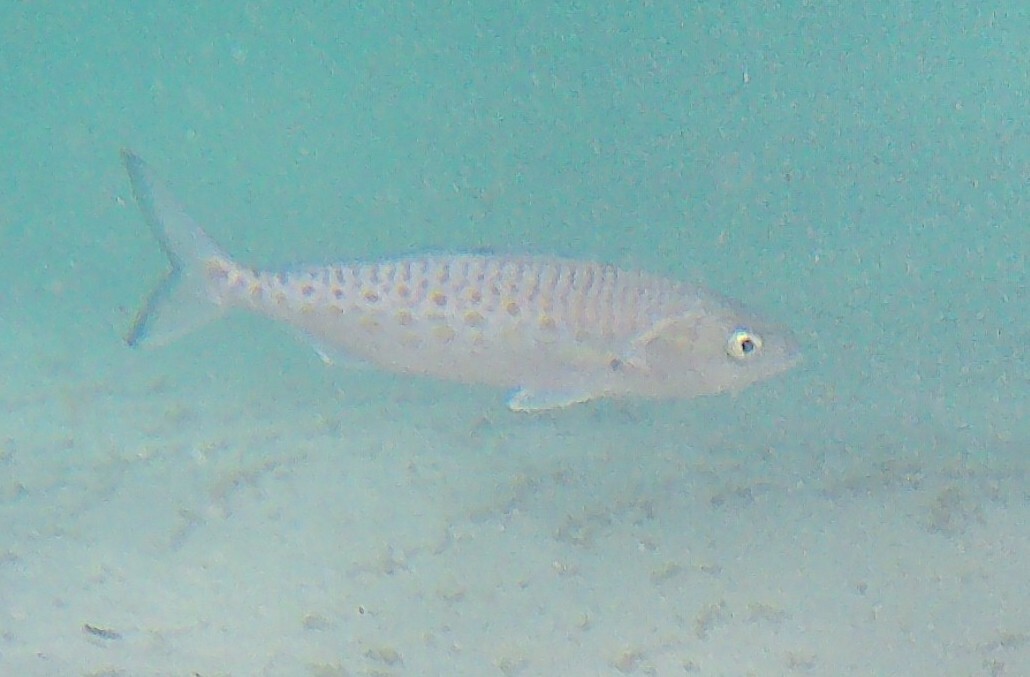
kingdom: Animalia
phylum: Chordata
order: Mugiliformes
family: Mugilidae
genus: Aldrichetta
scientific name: Aldrichetta forsteri
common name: Yellow-eye mullet
